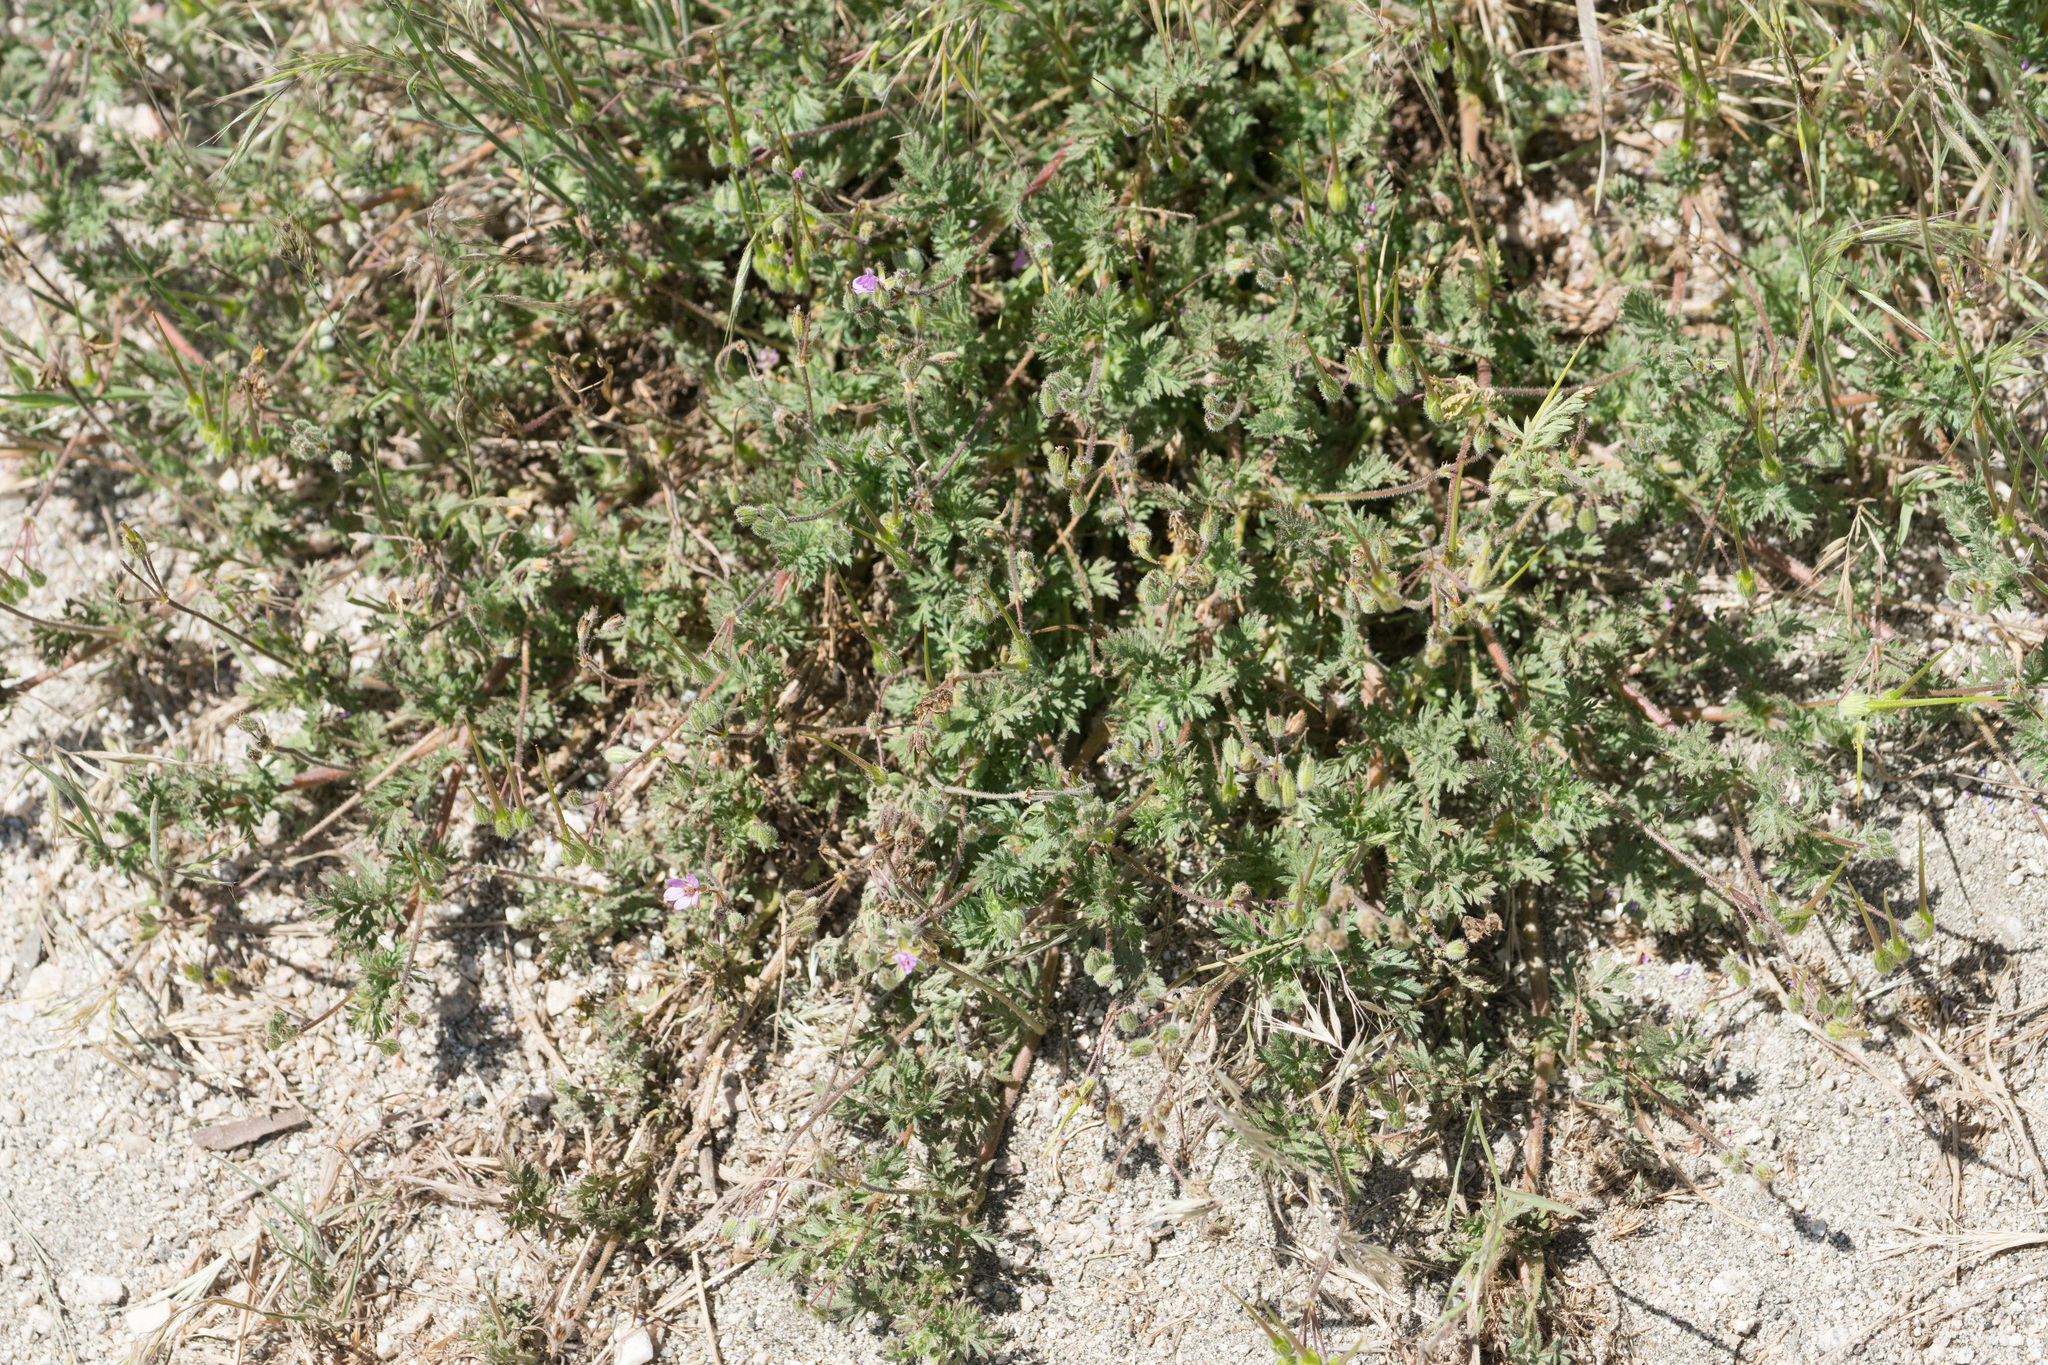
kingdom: Plantae
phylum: Tracheophyta
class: Magnoliopsida
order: Geraniales
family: Geraniaceae
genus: Erodium
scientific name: Erodium cicutarium
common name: Common stork's-bill
